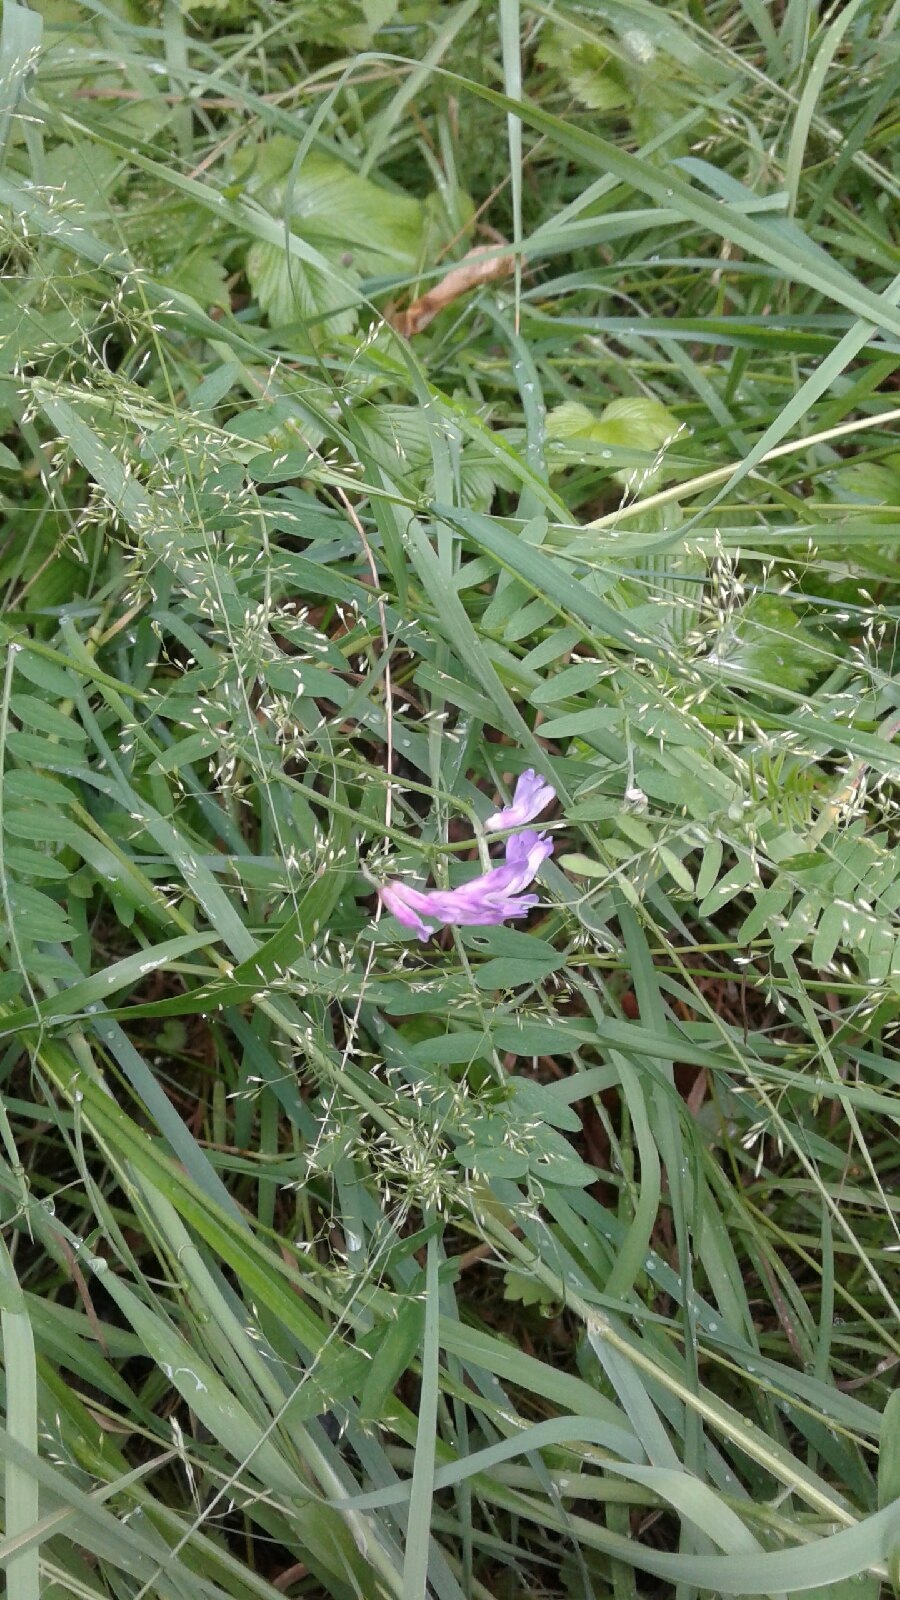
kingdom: Plantae
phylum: Tracheophyta
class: Magnoliopsida
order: Fabales
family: Fabaceae
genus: Vicia
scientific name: Vicia cracca
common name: Bird vetch
